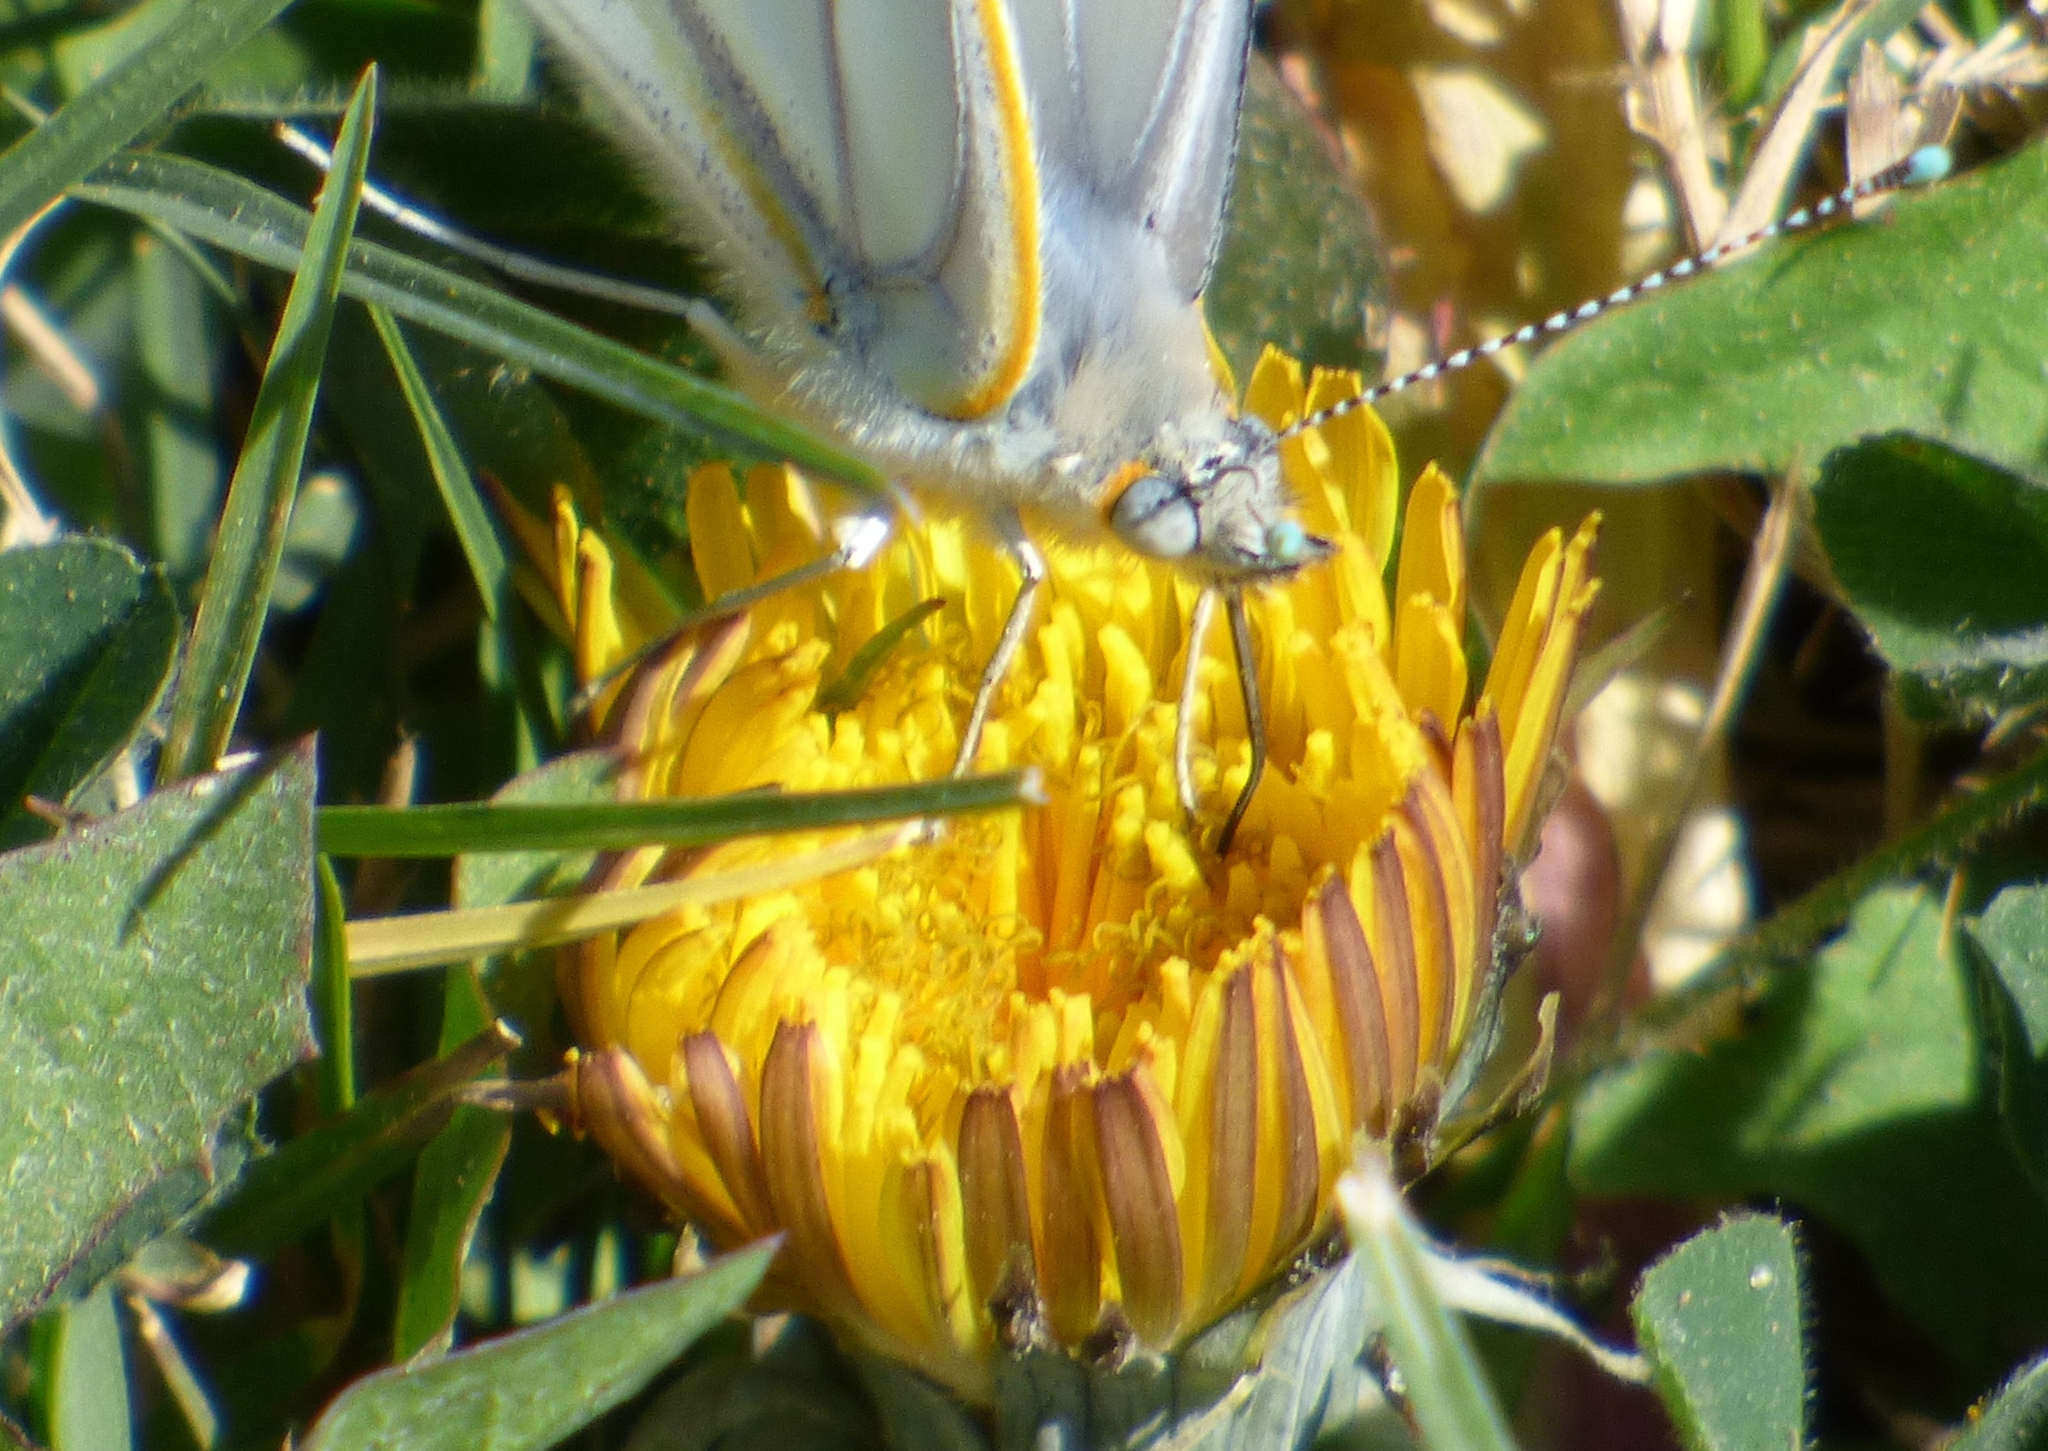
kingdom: Animalia
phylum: Arthropoda
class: Insecta
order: Lepidoptera
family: Pieridae
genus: Tatochila
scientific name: Tatochila mercedis
